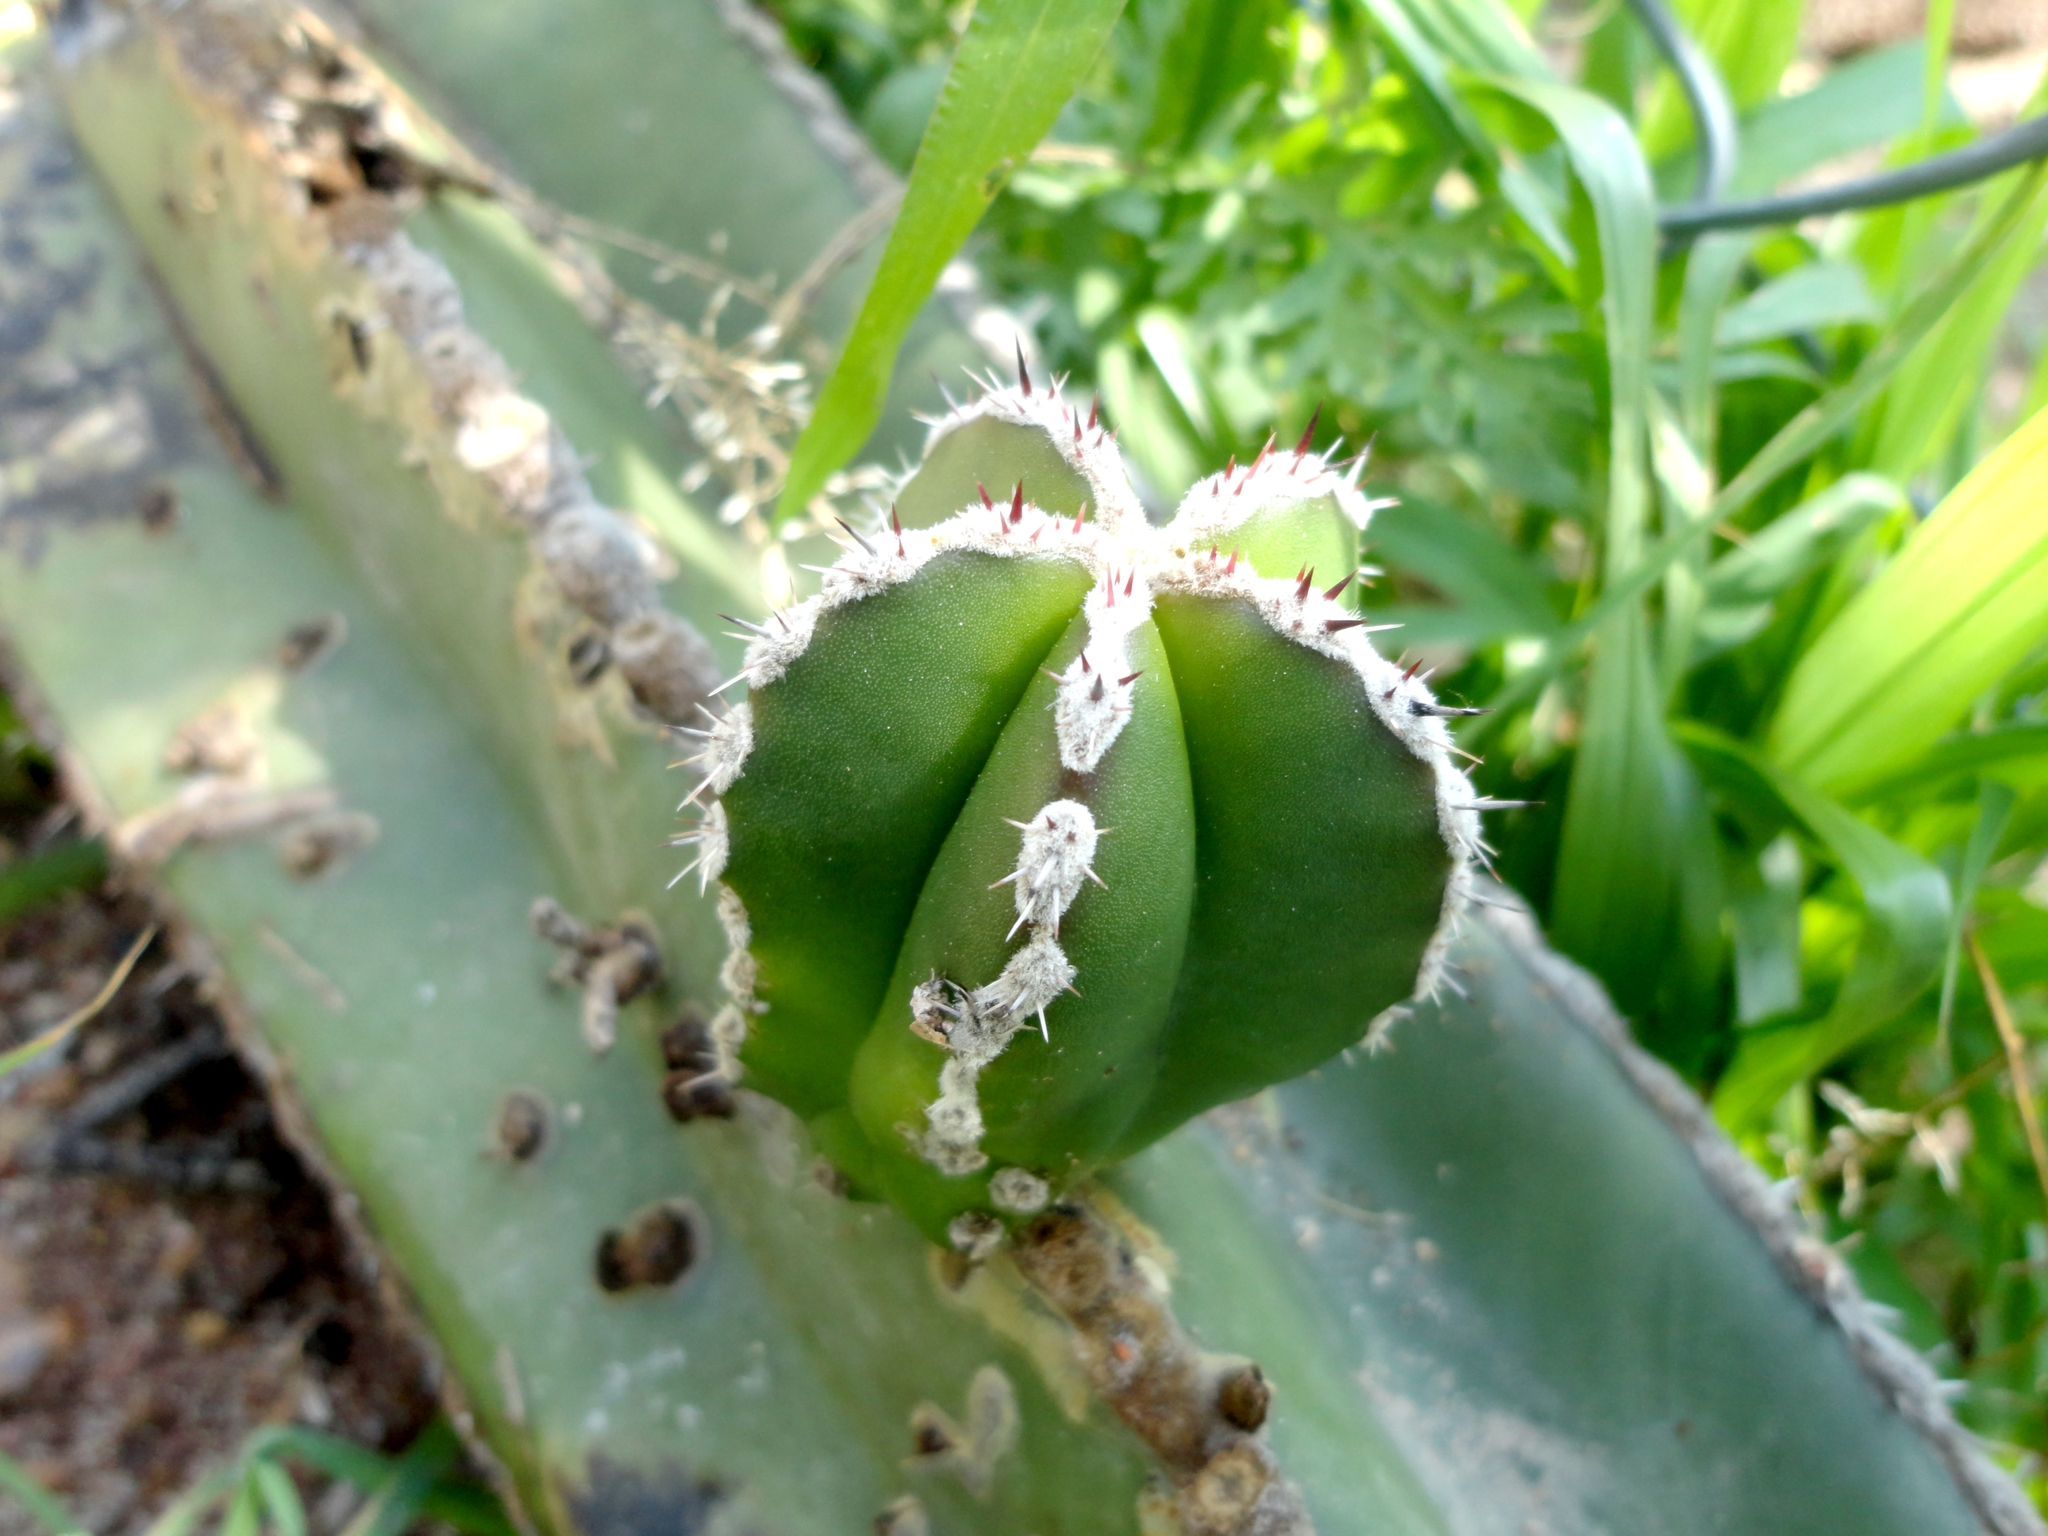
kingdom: Plantae
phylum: Tracheophyta
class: Magnoliopsida
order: Caryophyllales
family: Cactaceae
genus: Marginatocereus
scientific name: Marginatocereus marginatus
